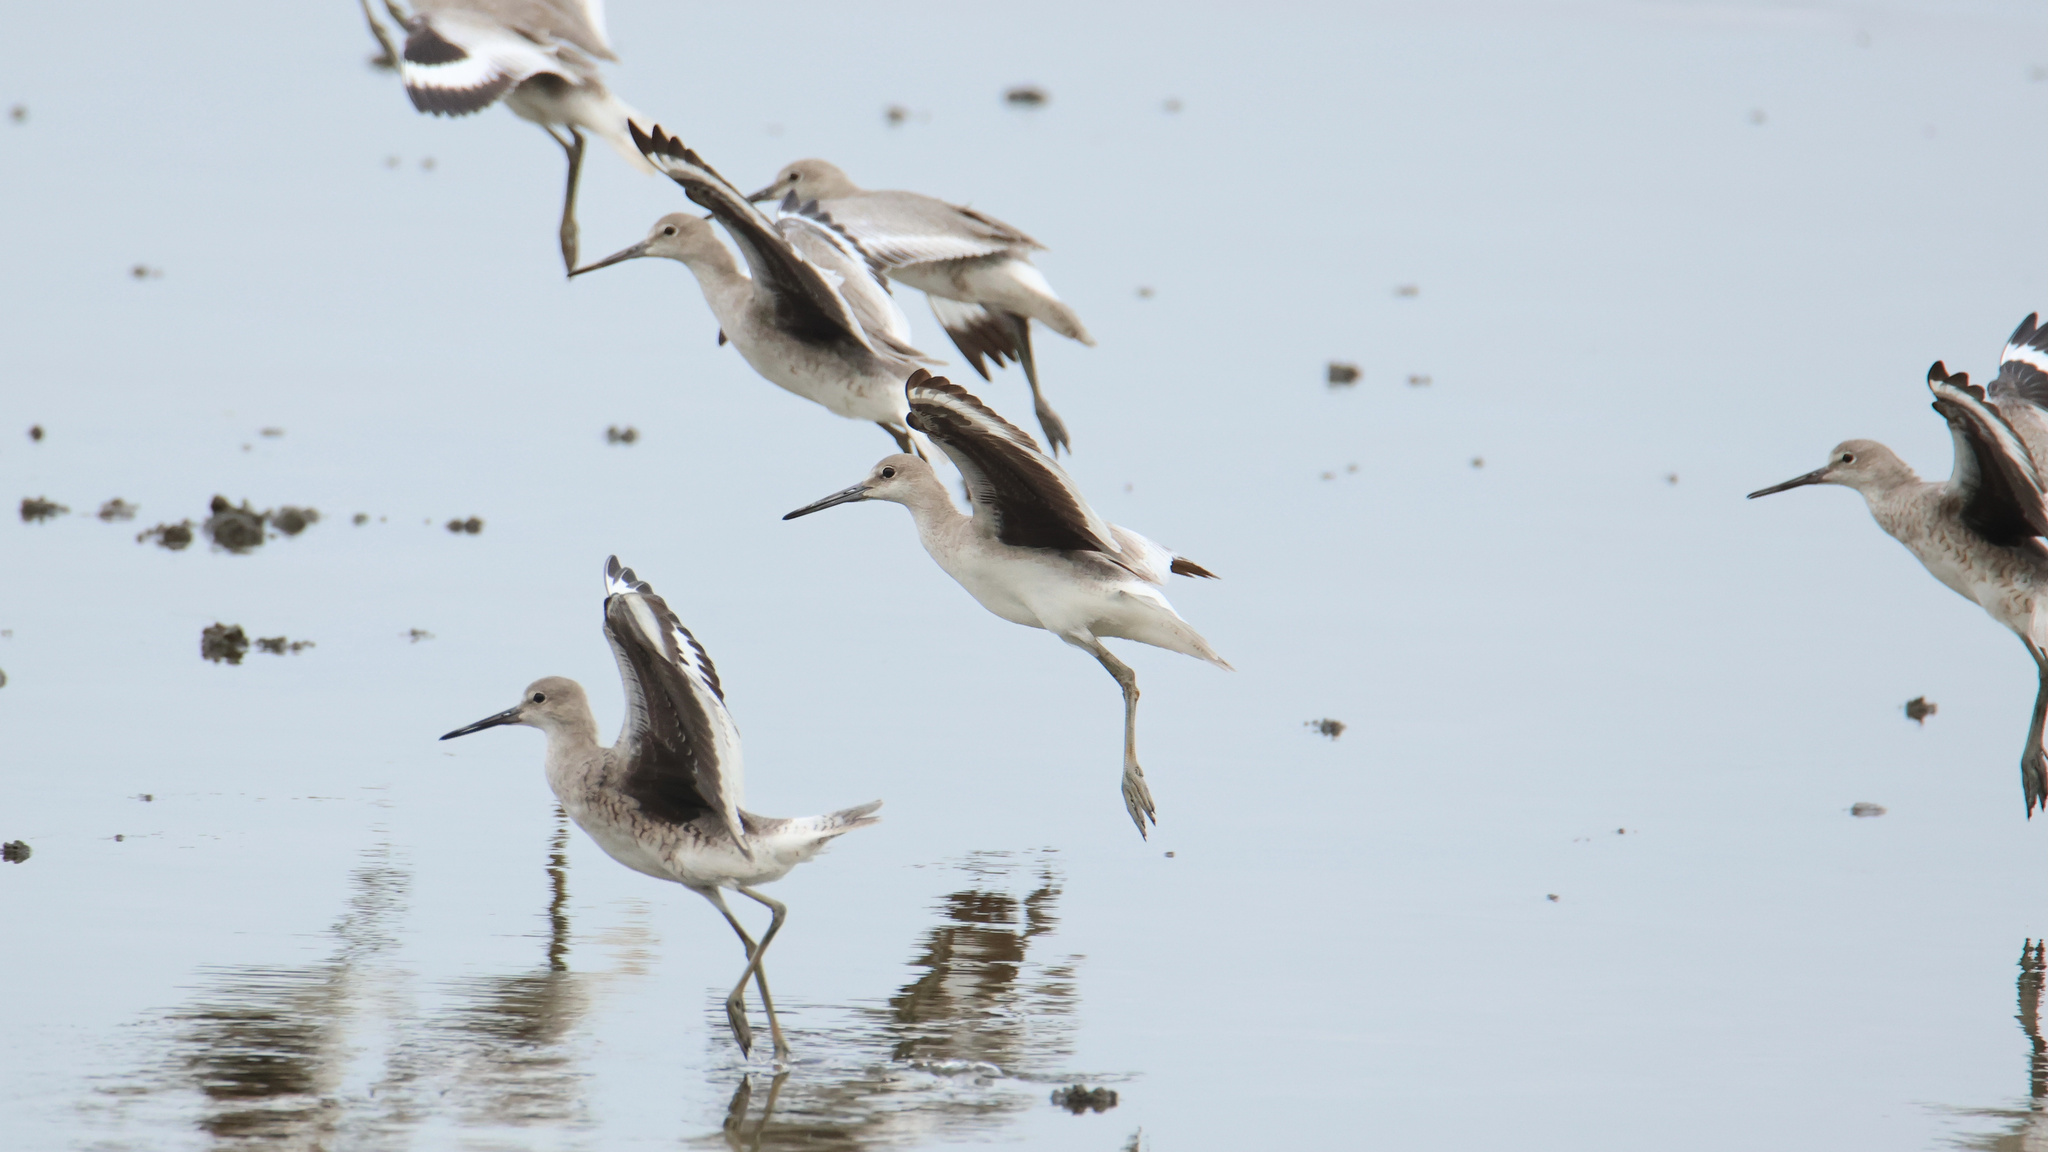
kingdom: Animalia
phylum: Chordata
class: Aves
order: Charadriiformes
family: Scolopacidae
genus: Tringa
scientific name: Tringa semipalmata
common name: Willet
